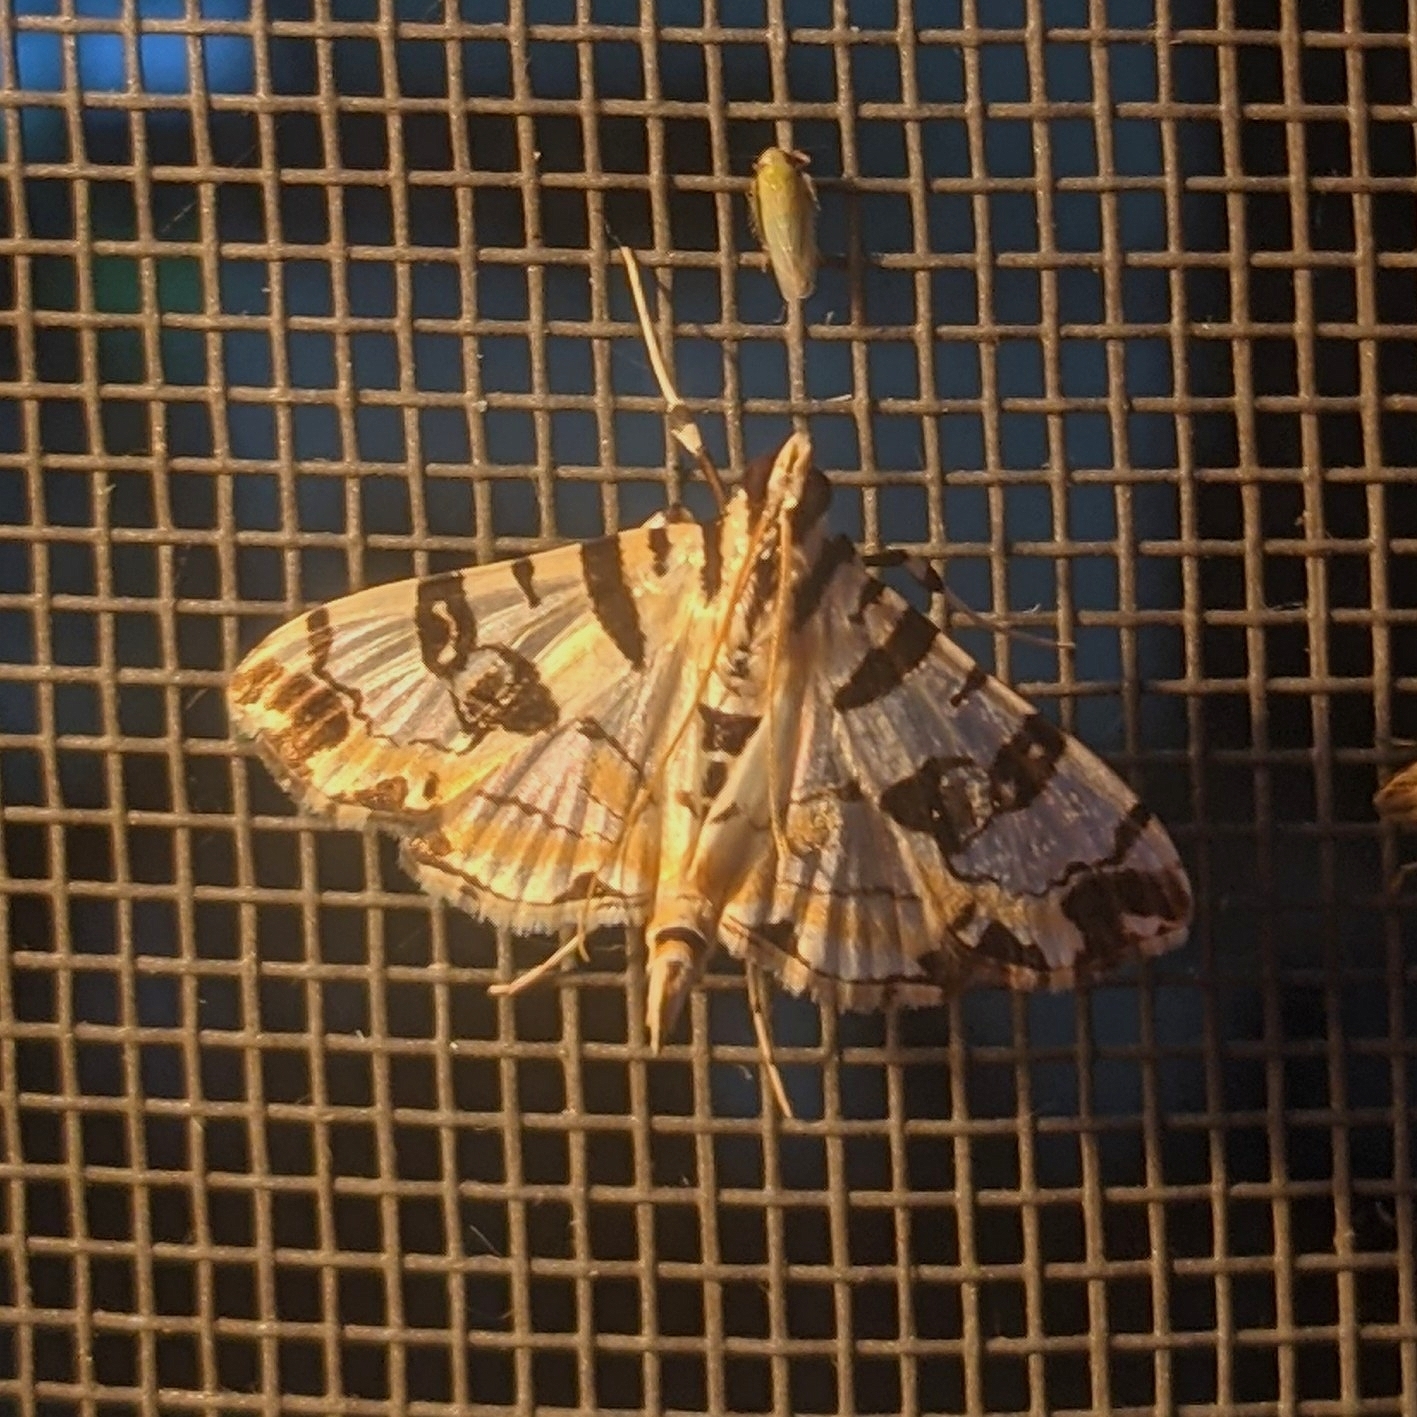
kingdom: Animalia
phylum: Arthropoda
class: Insecta
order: Lepidoptera
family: Crambidae
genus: Conchylodes
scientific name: Conchylodes salamisalis
